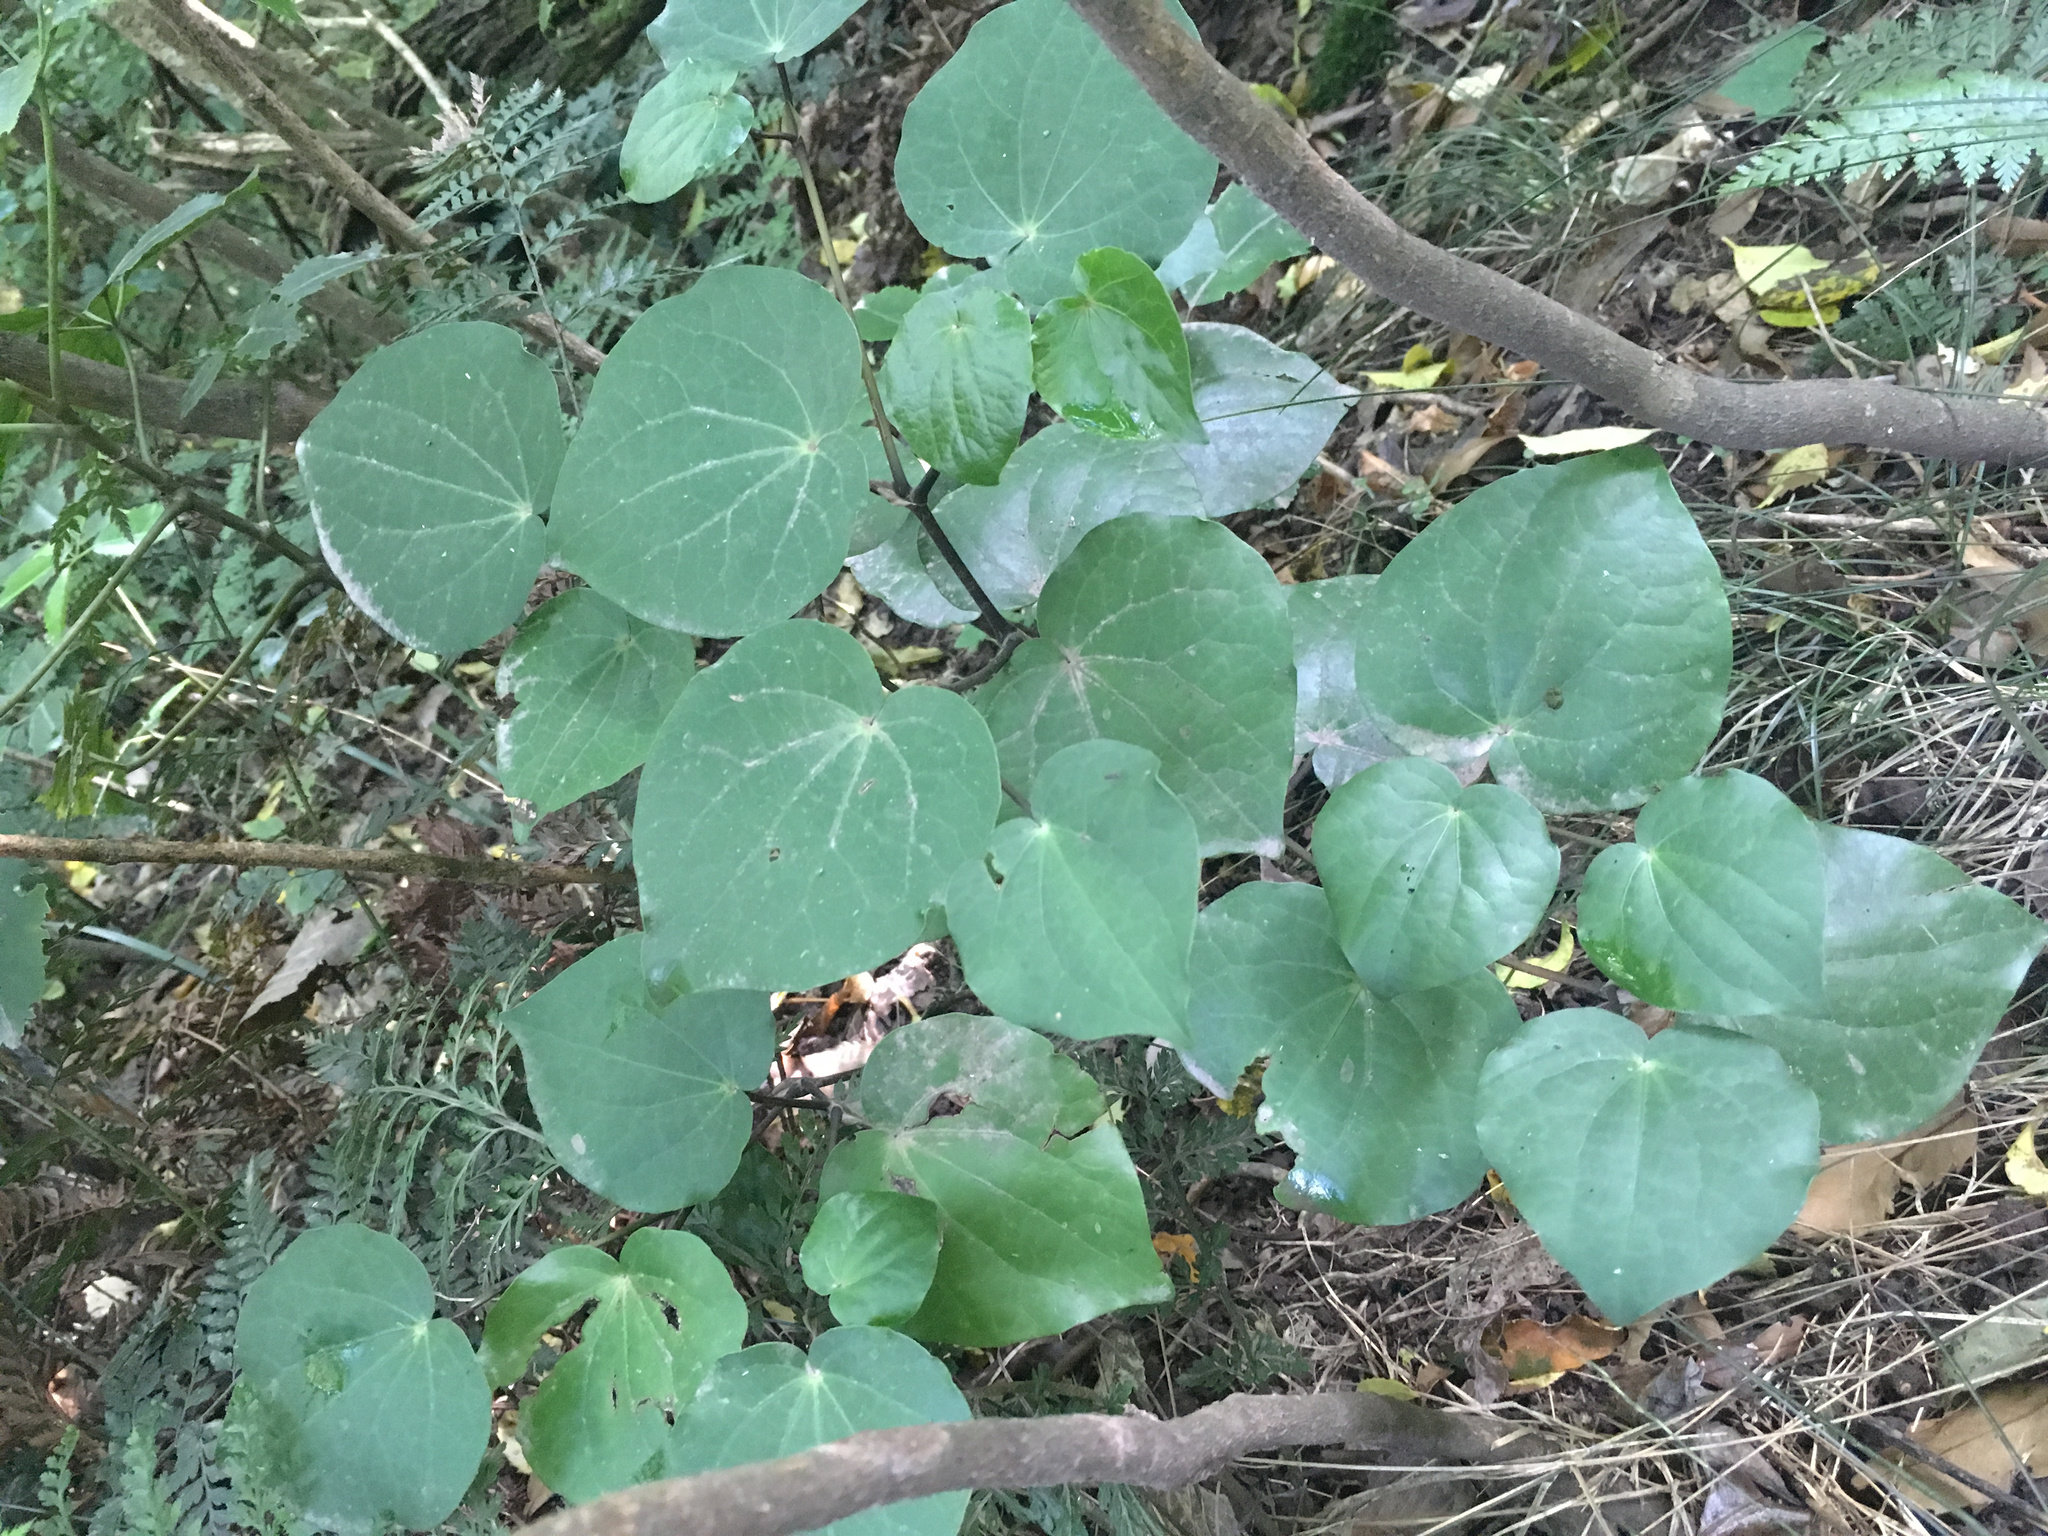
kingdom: Plantae
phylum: Tracheophyta
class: Magnoliopsida
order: Piperales
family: Piperaceae
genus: Macropiper
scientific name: Macropiper excelsum
